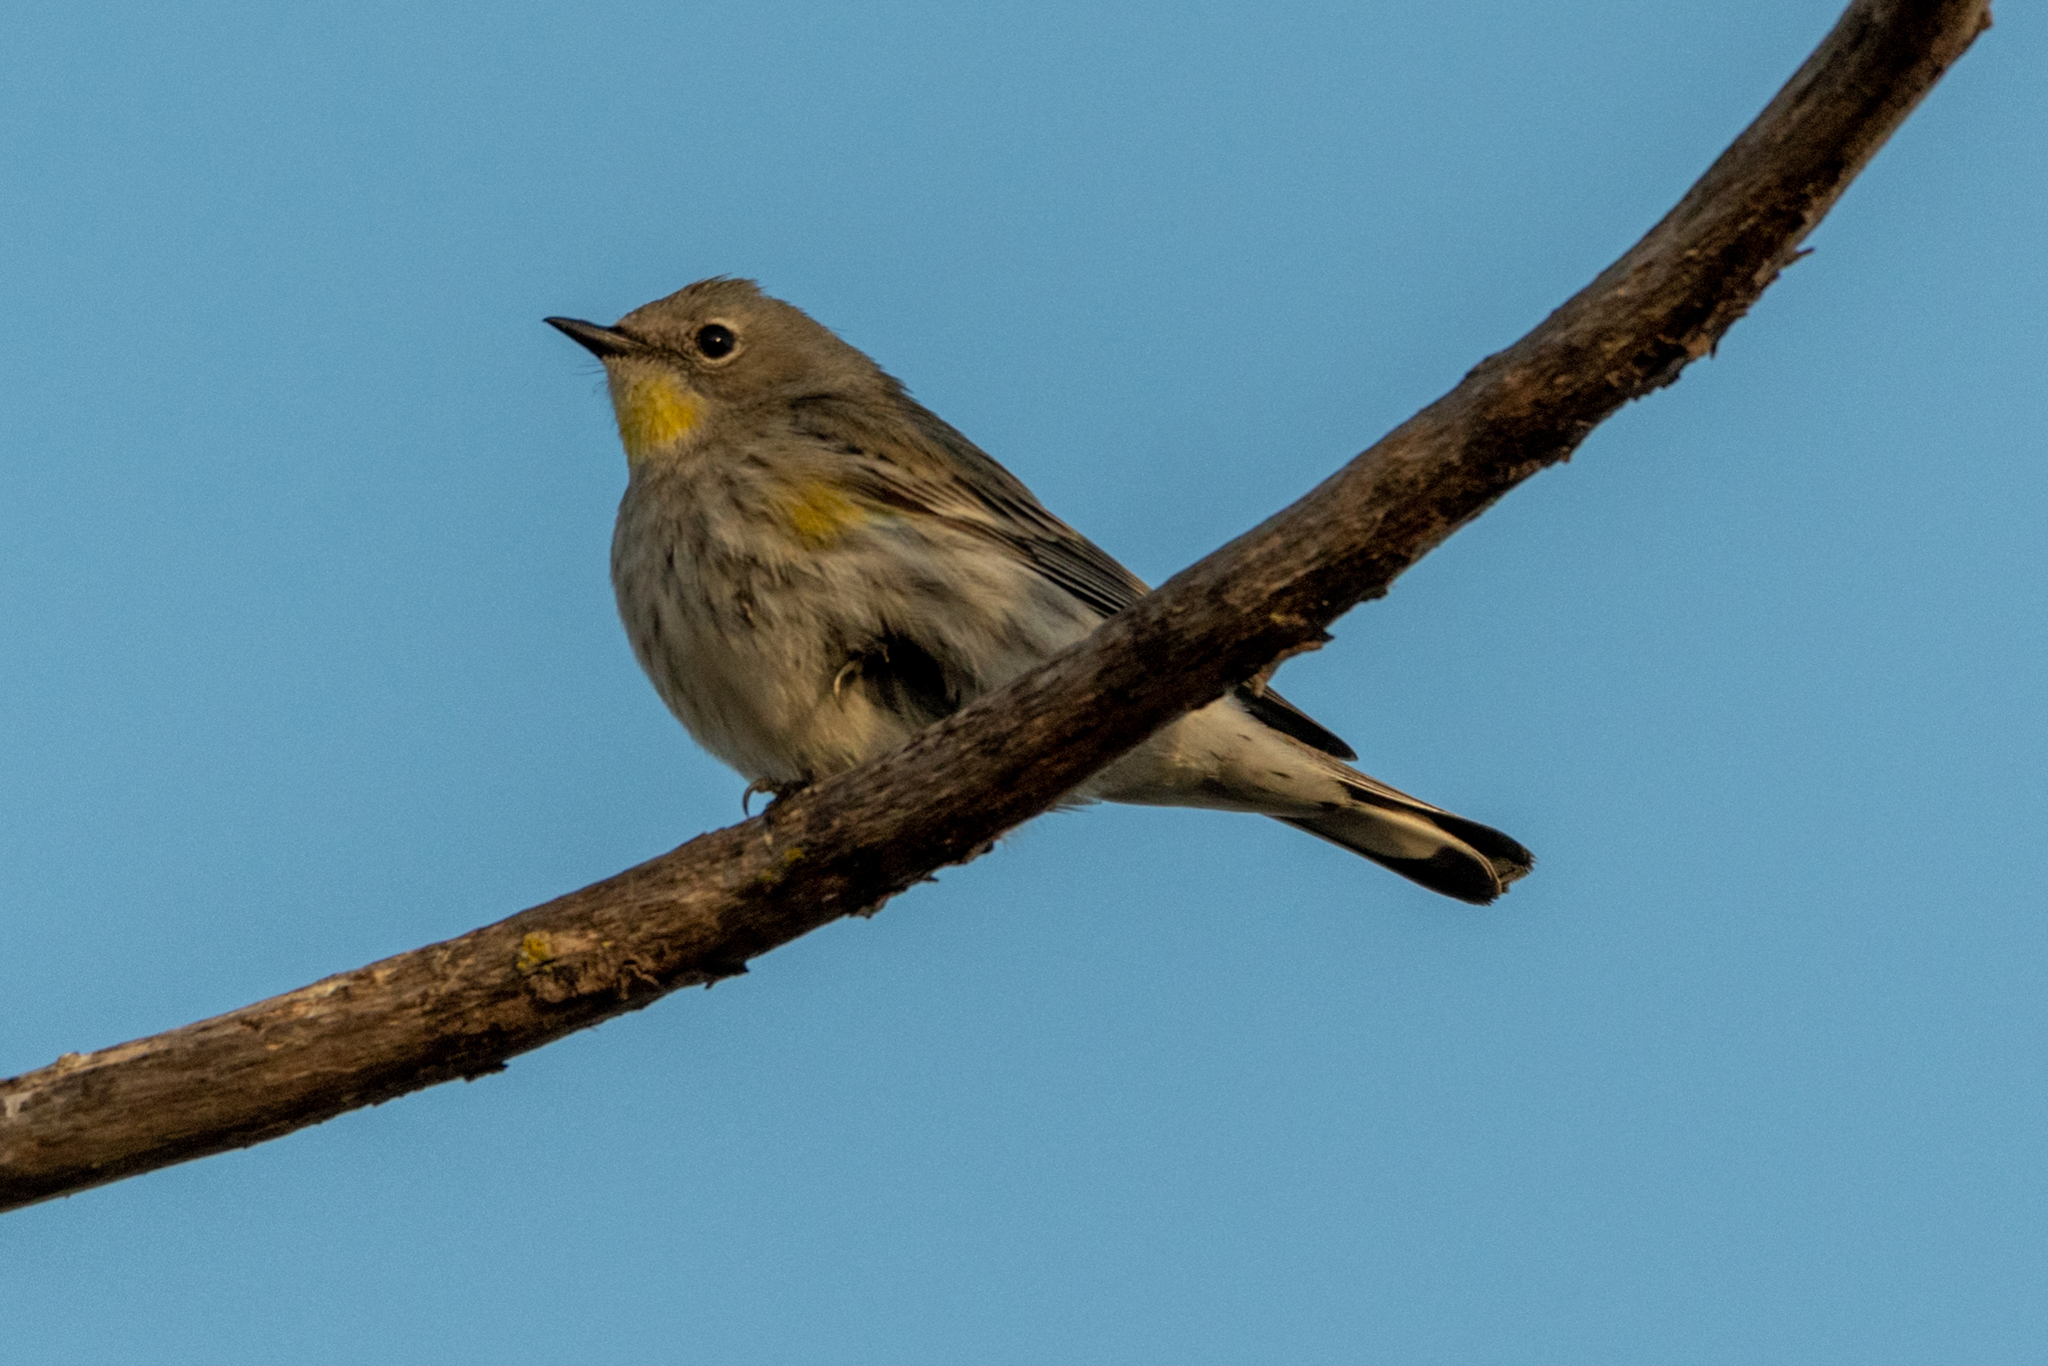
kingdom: Animalia
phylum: Chordata
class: Aves
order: Passeriformes
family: Parulidae
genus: Setophaga
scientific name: Setophaga coronata
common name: Myrtle warbler
